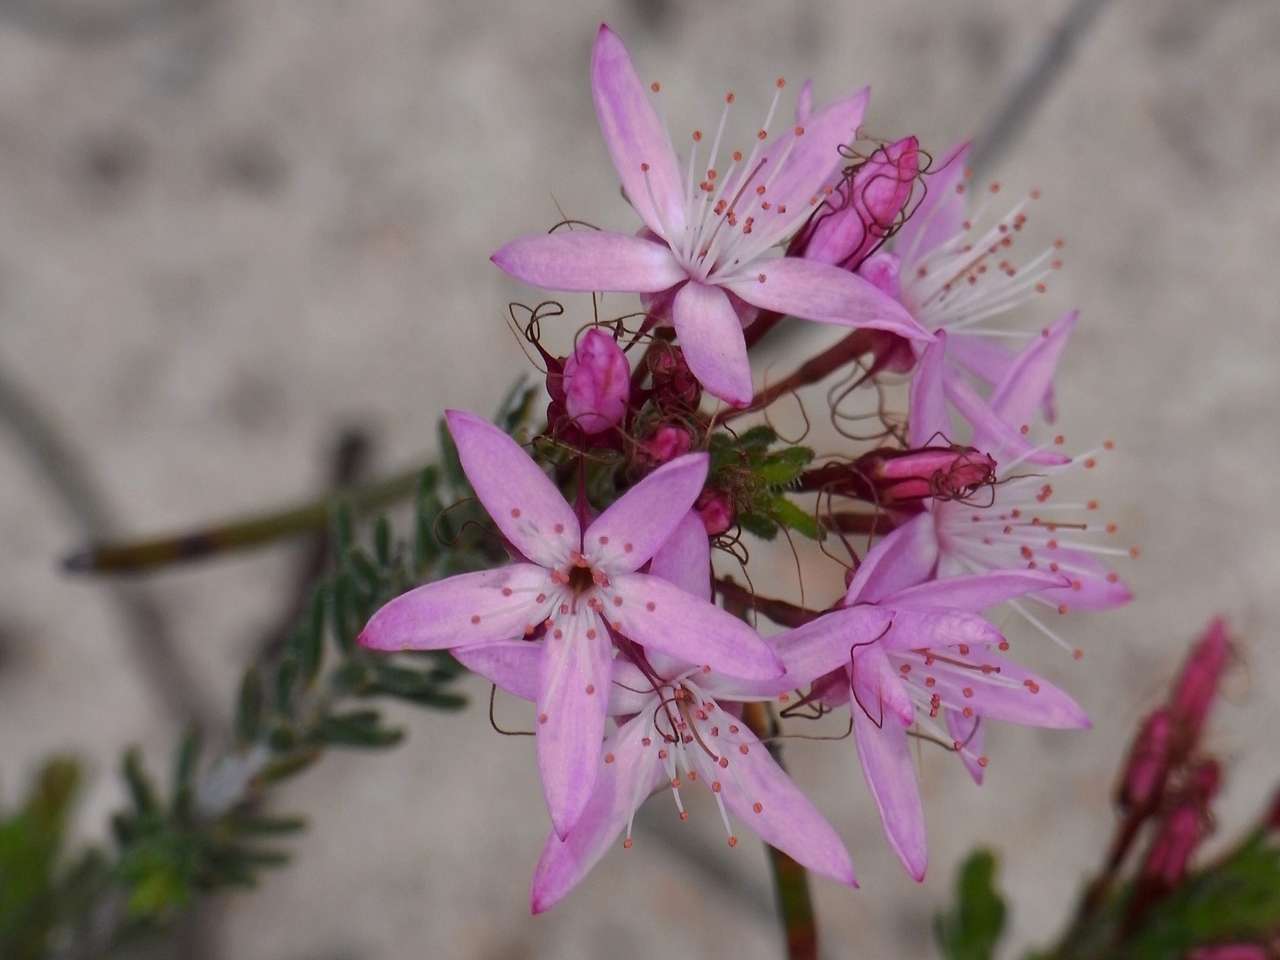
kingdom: Plantae
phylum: Tracheophyta
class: Magnoliopsida
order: Myrtales
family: Myrtaceae
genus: Calytrix
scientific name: Calytrix tetragona
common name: Common fringe myrtle
